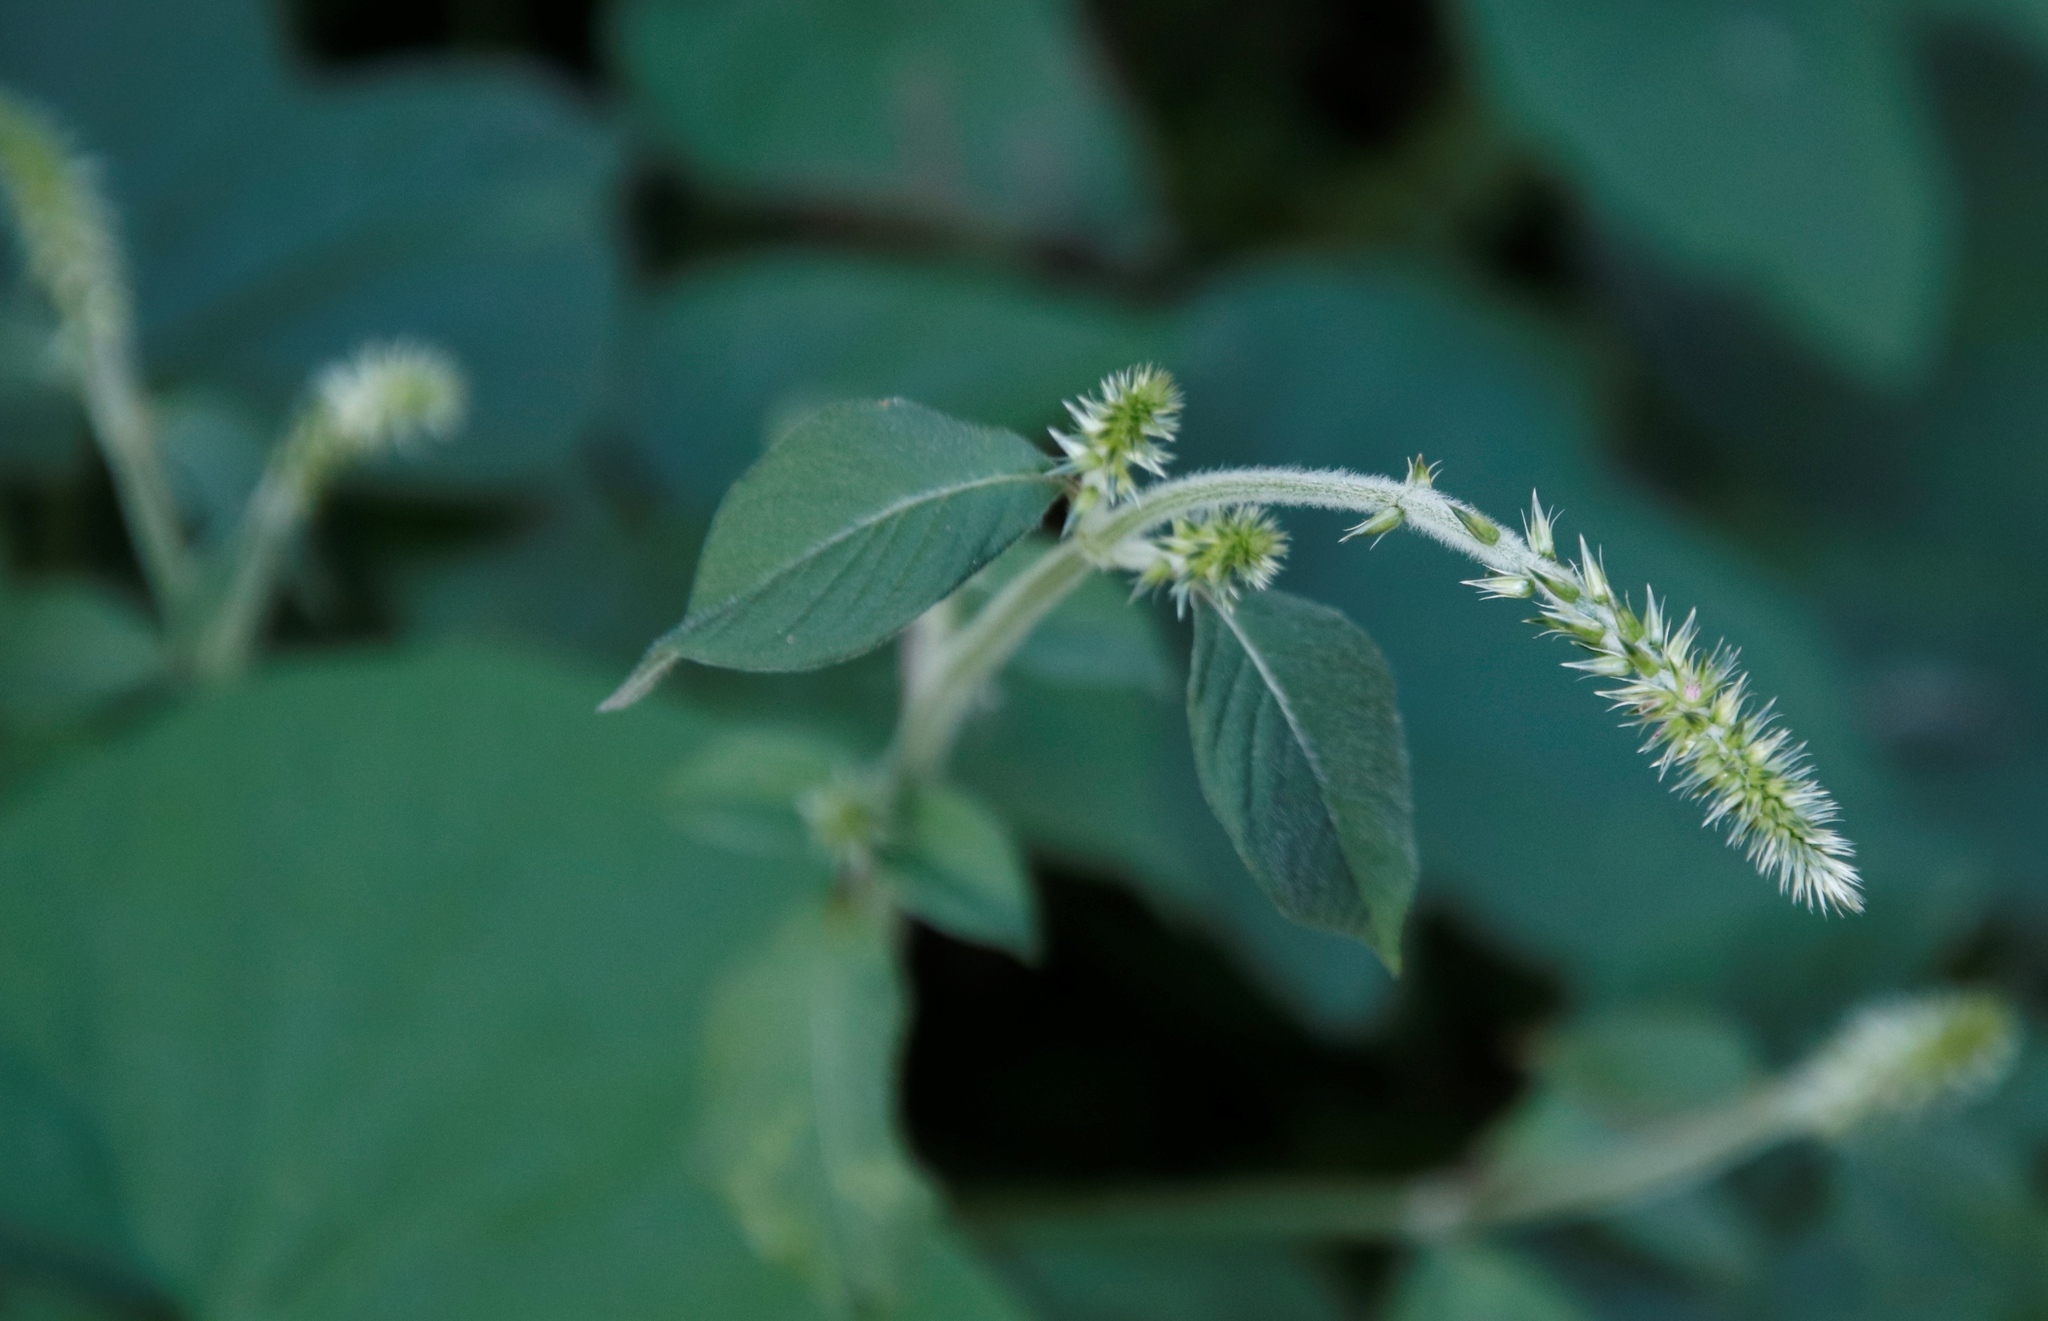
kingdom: Plantae
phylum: Tracheophyta
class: Magnoliopsida
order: Caryophyllales
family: Amaranthaceae
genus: Achyranthes
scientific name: Achyranthes aspera
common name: Devil's horsewhip
